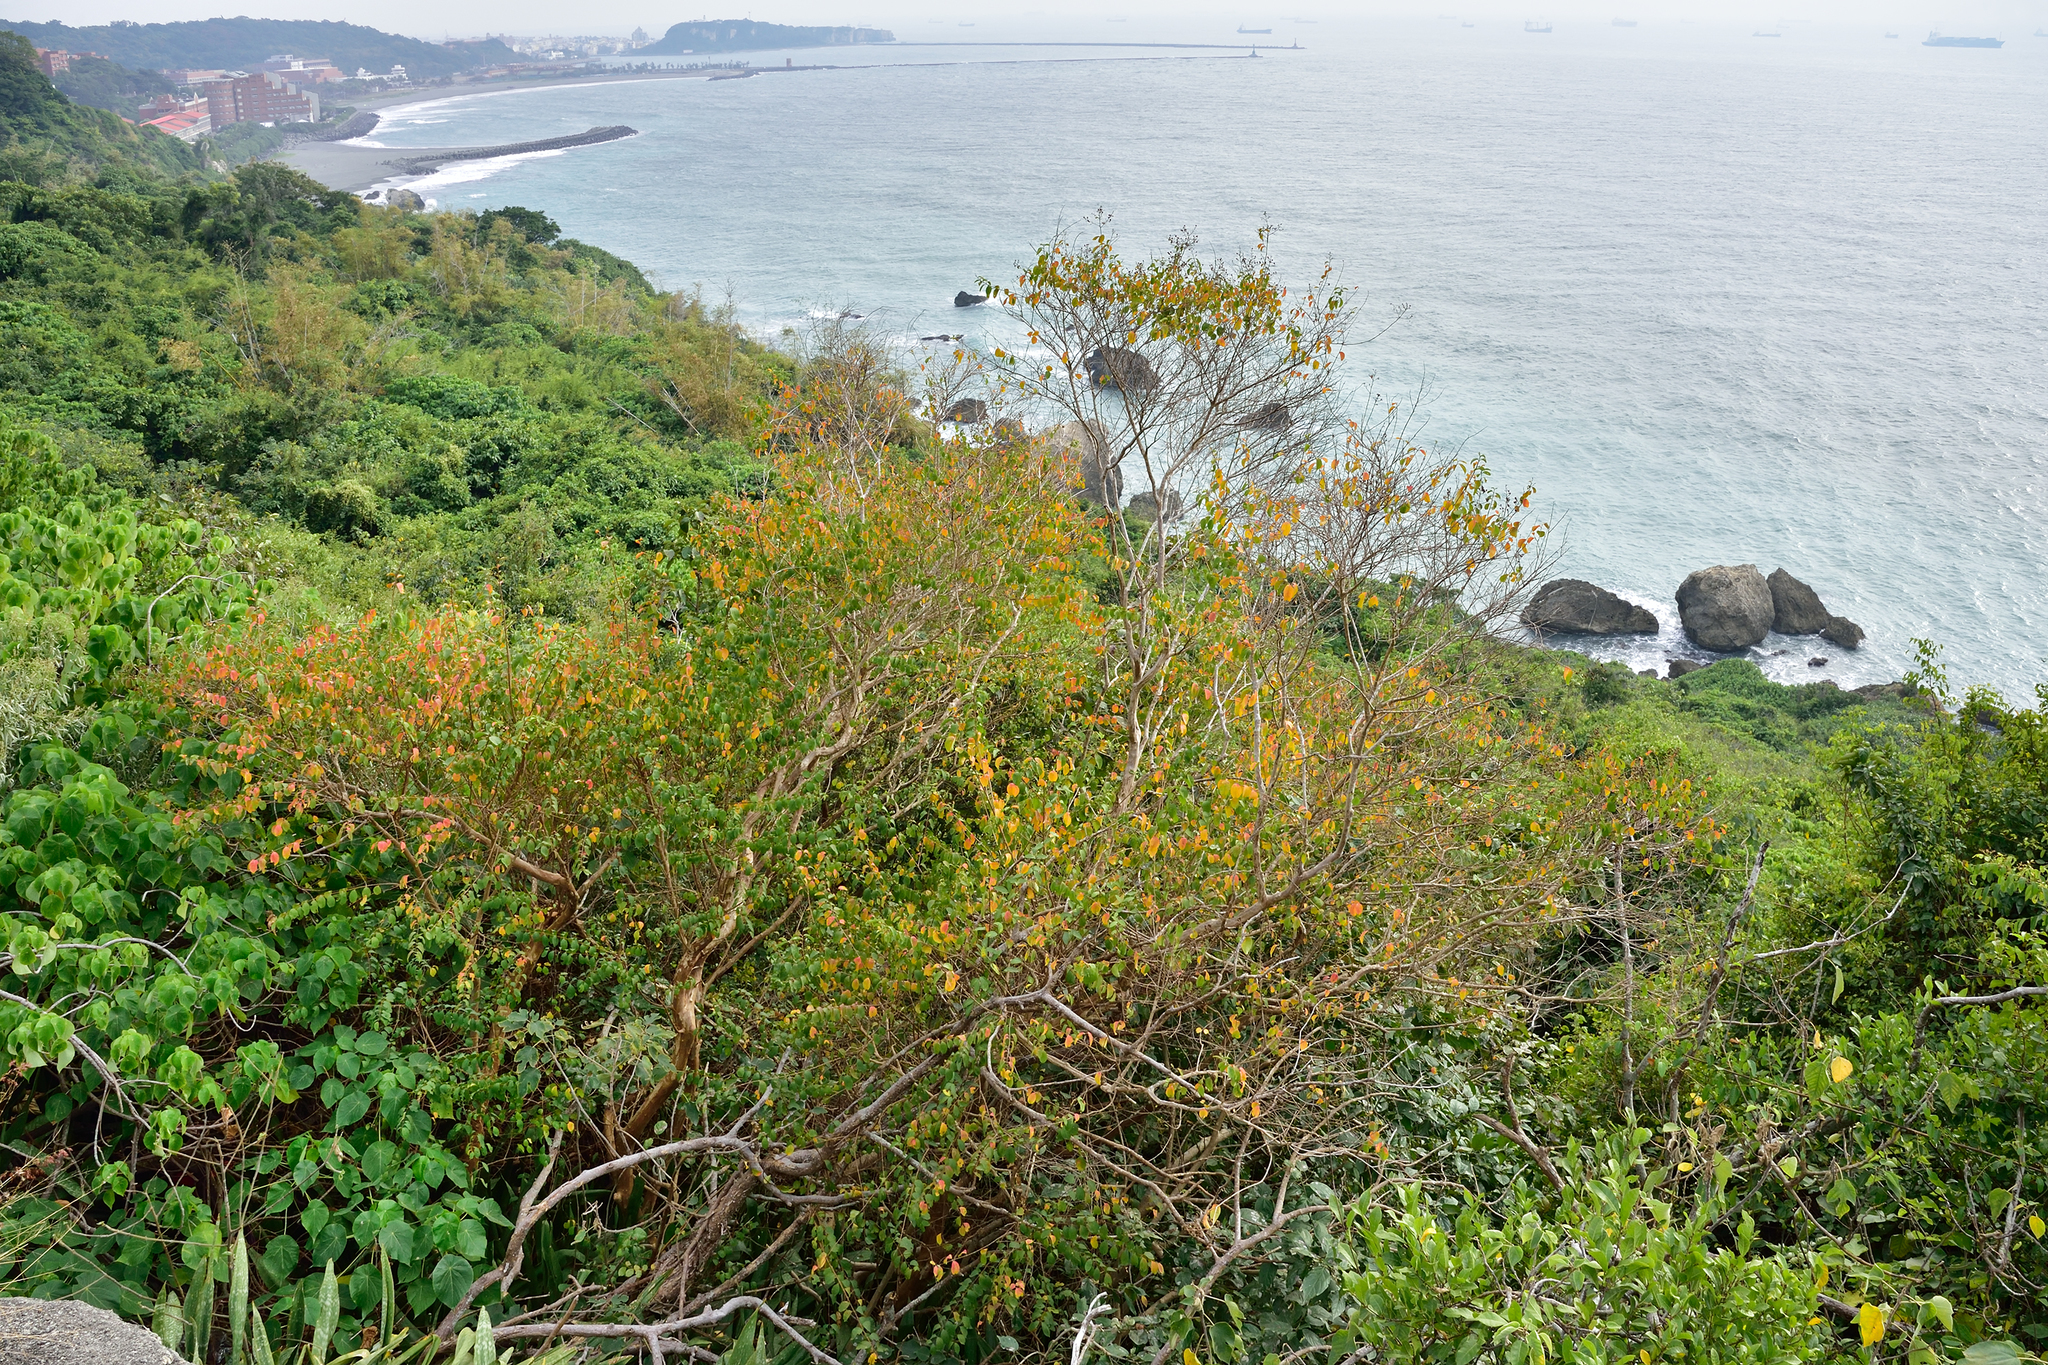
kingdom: Plantae
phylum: Tracheophyta
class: Magnoliopsida
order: Myrtales
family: Lythraceae
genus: Lagerstroemia
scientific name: Lagerstroemia subcostata
